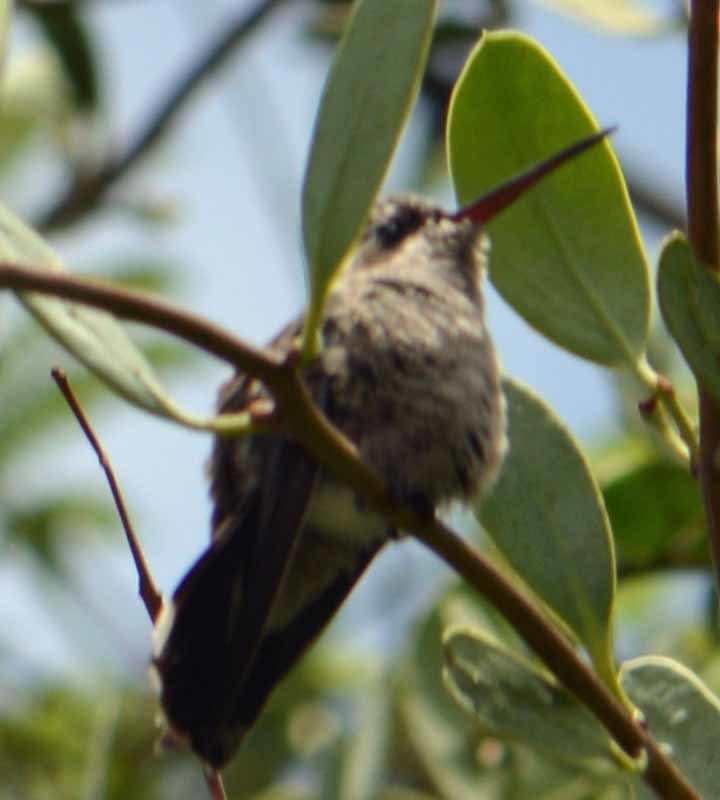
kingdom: Animalia
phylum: Chordata
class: Aves
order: Apodiformes
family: Trochilidae
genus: Cynanthus
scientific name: Cynanthus latirostris
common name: Broad-billed hummingbird
